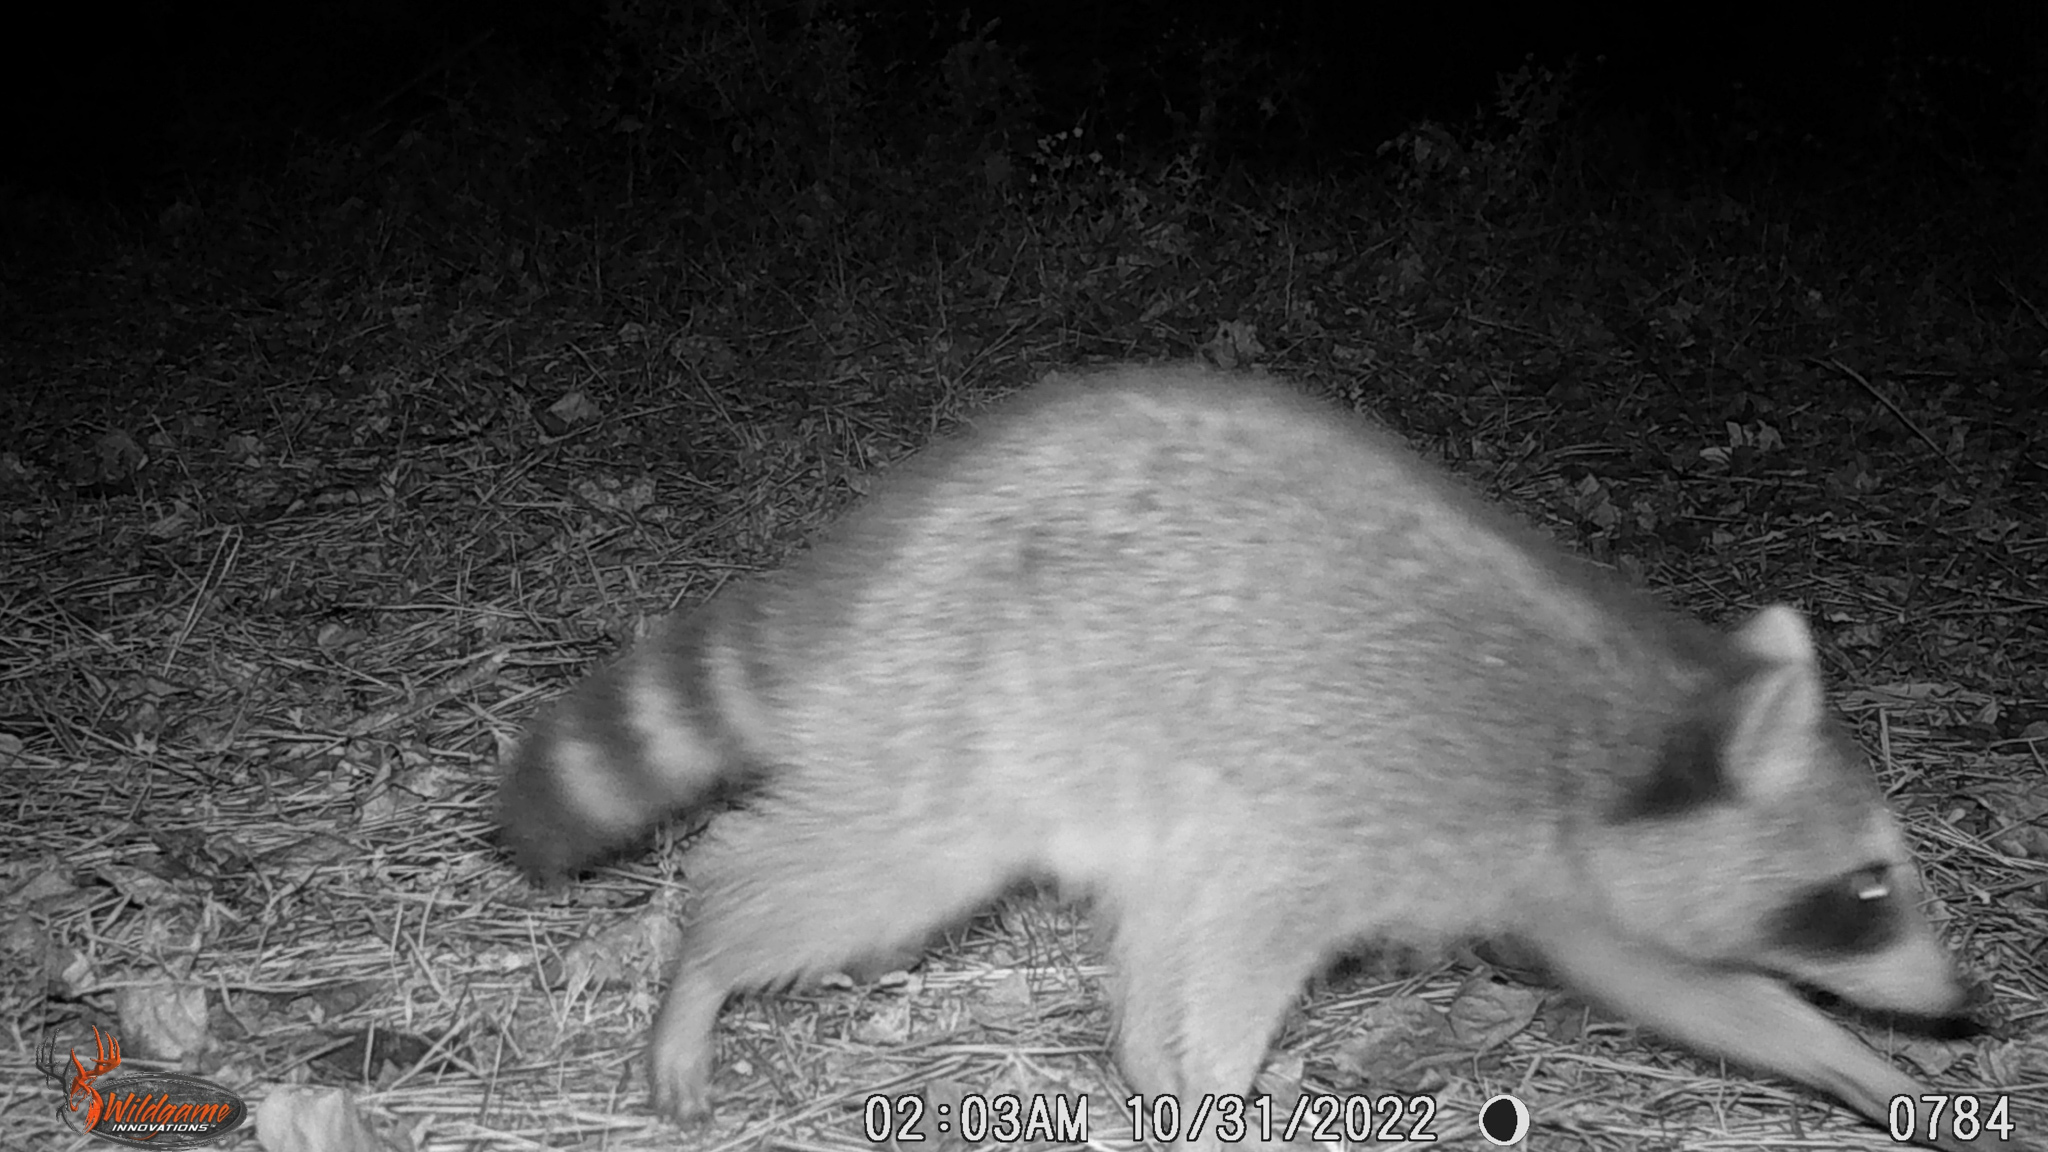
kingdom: Animalia
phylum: Chordata
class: Mammalia
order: Carnivora
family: Procyonidae
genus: Procyon
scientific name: Procyon lotor
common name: Raccoon
